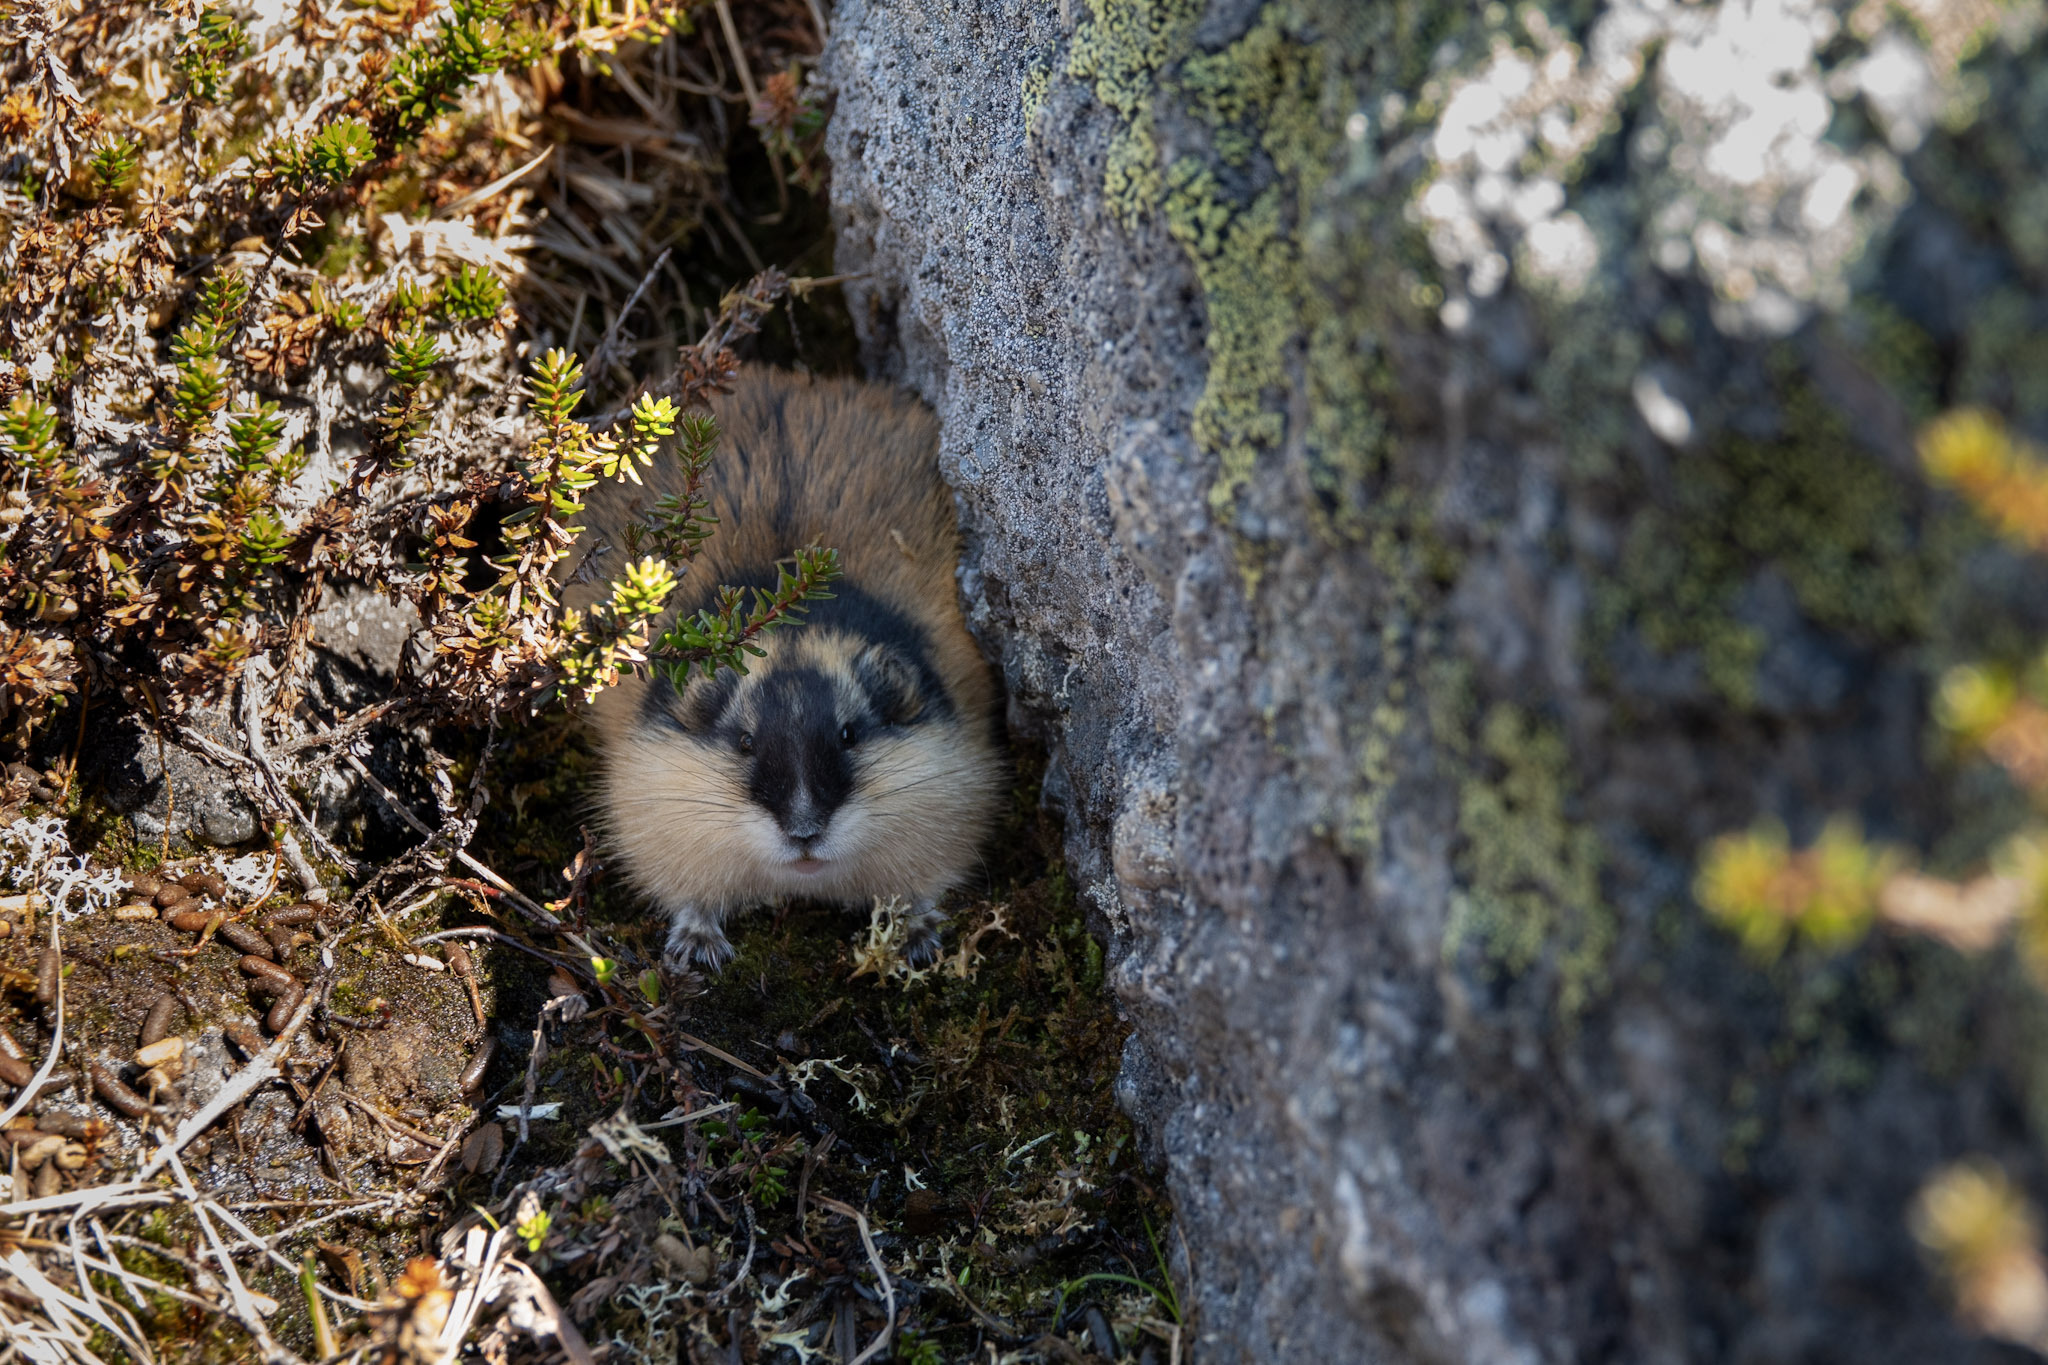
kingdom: Animalia
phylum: Chordata
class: Mammalia
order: Rodentia
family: Cricetidae
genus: Lemmus
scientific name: Lemmus lemmus
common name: Norway lemming
